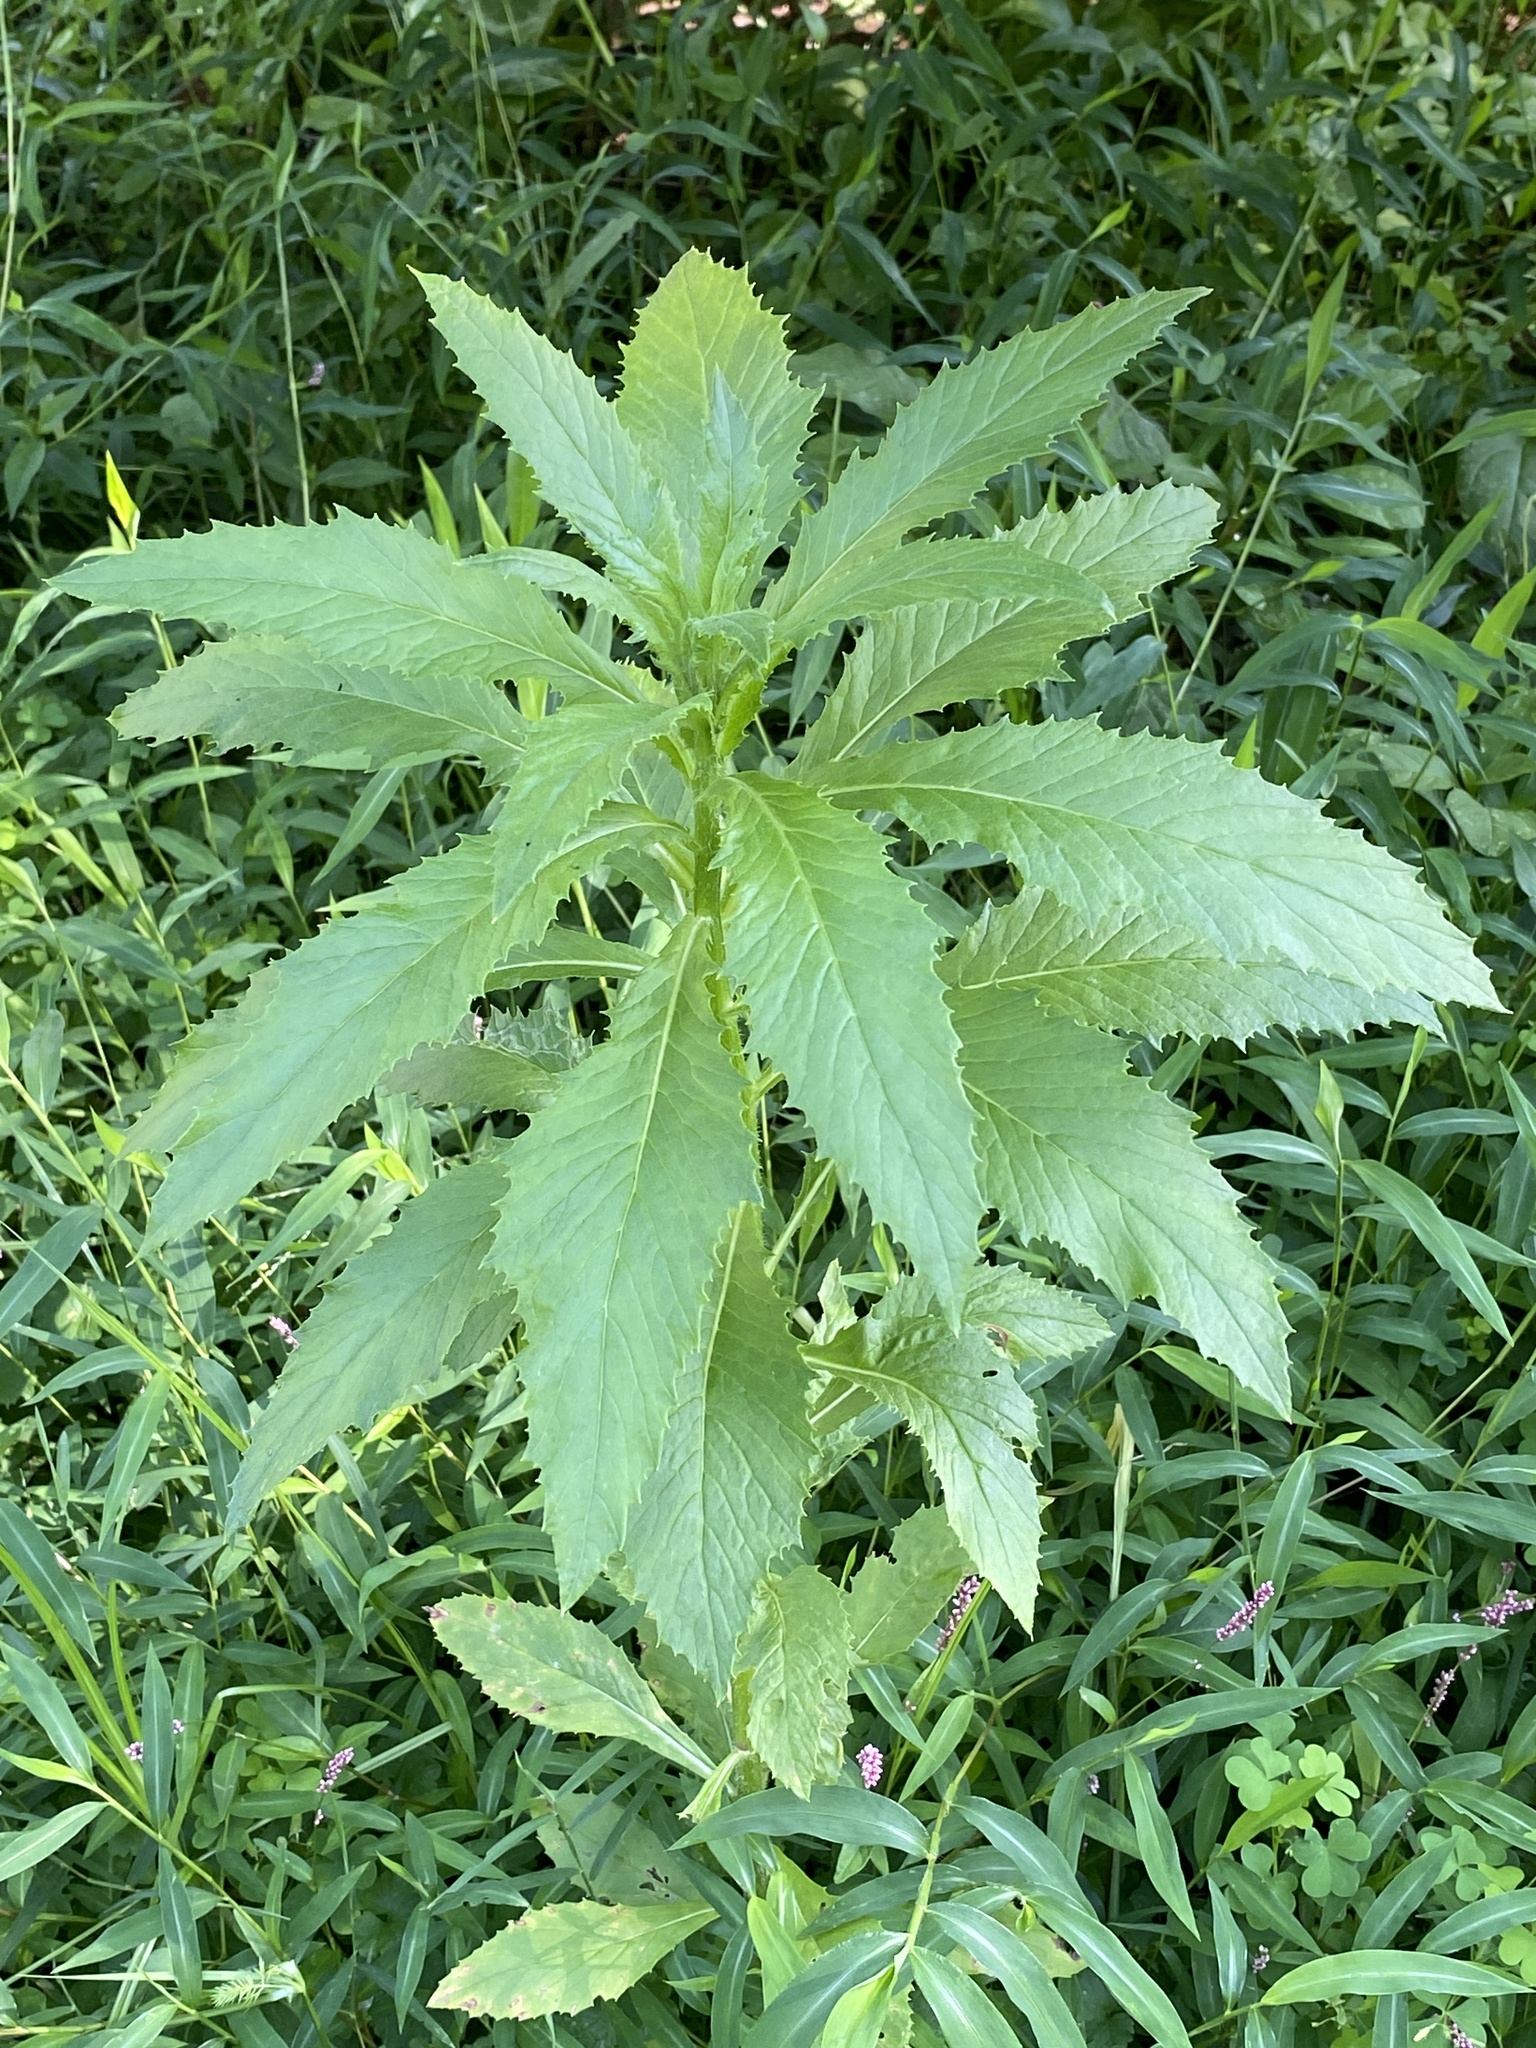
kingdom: Plantae
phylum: Tracheophyta
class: Magnoliopsida
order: Asterales
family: Asteraceae
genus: Erechtites
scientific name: Erechtites hieraciifolius
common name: American burnweed
